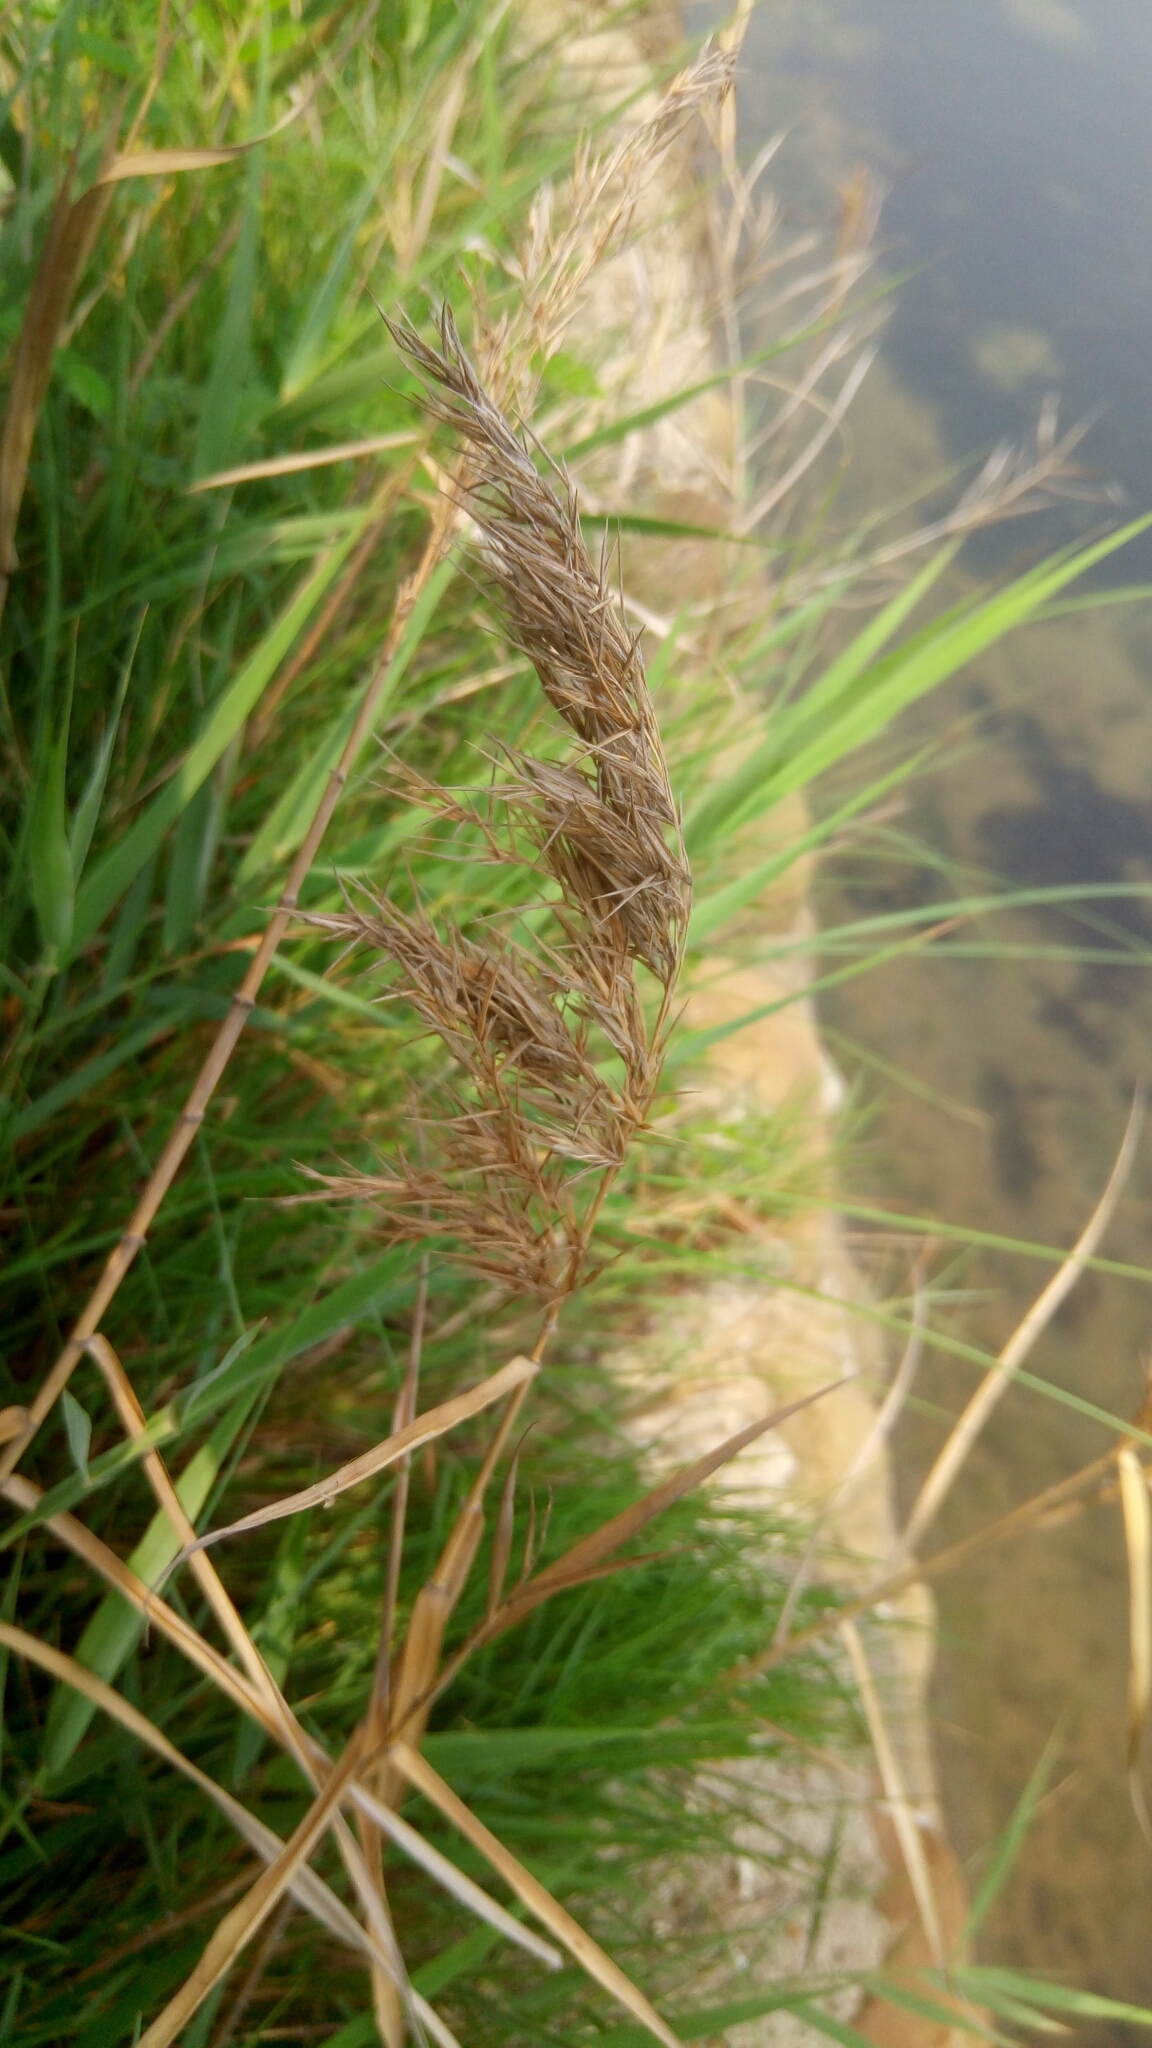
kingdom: Plantae
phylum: Tracheophyta
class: Liliopsida
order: Poales
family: Poaceae
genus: Phragmites
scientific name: Phragmites australis
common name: Common reed
